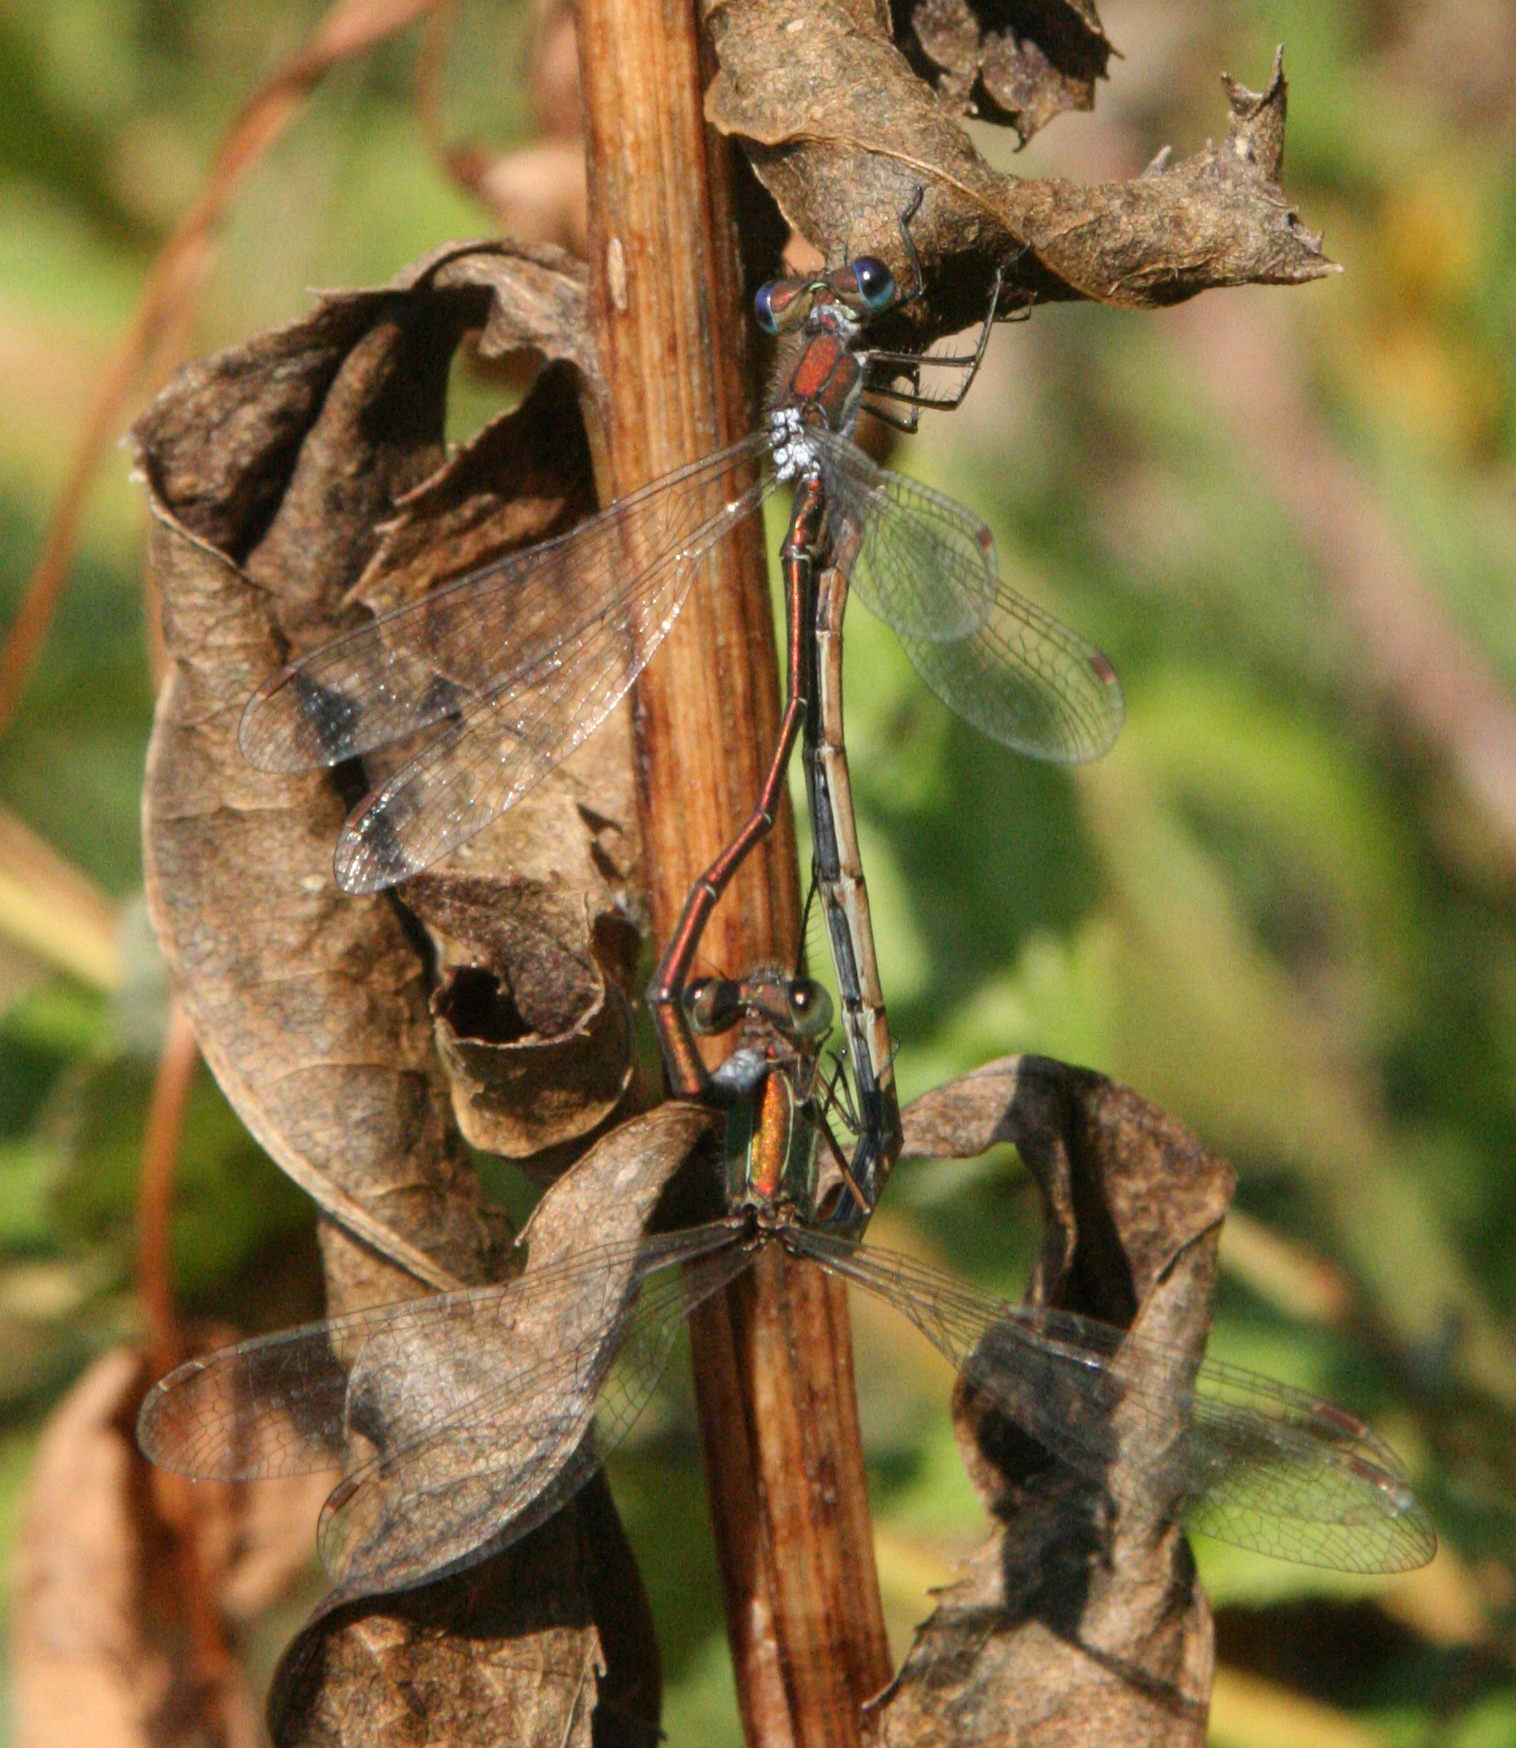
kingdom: Animalia
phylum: Arthropoda
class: Insecta
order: Odonata
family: Lestidae
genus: Lestes
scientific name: Lestes virens
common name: Small emerald spreadwing
